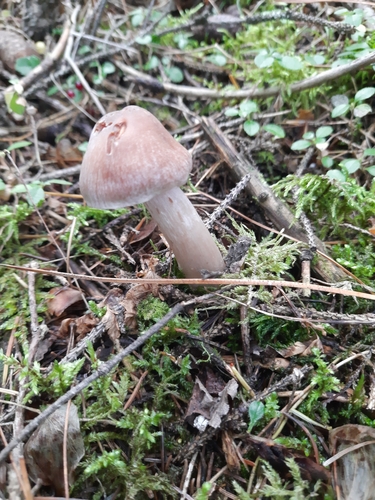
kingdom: Fungi
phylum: Basidiomycota
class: Agaricomycetes
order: Agaricales
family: Cortinariaceae
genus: Cortinarius
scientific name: Cortinarius
